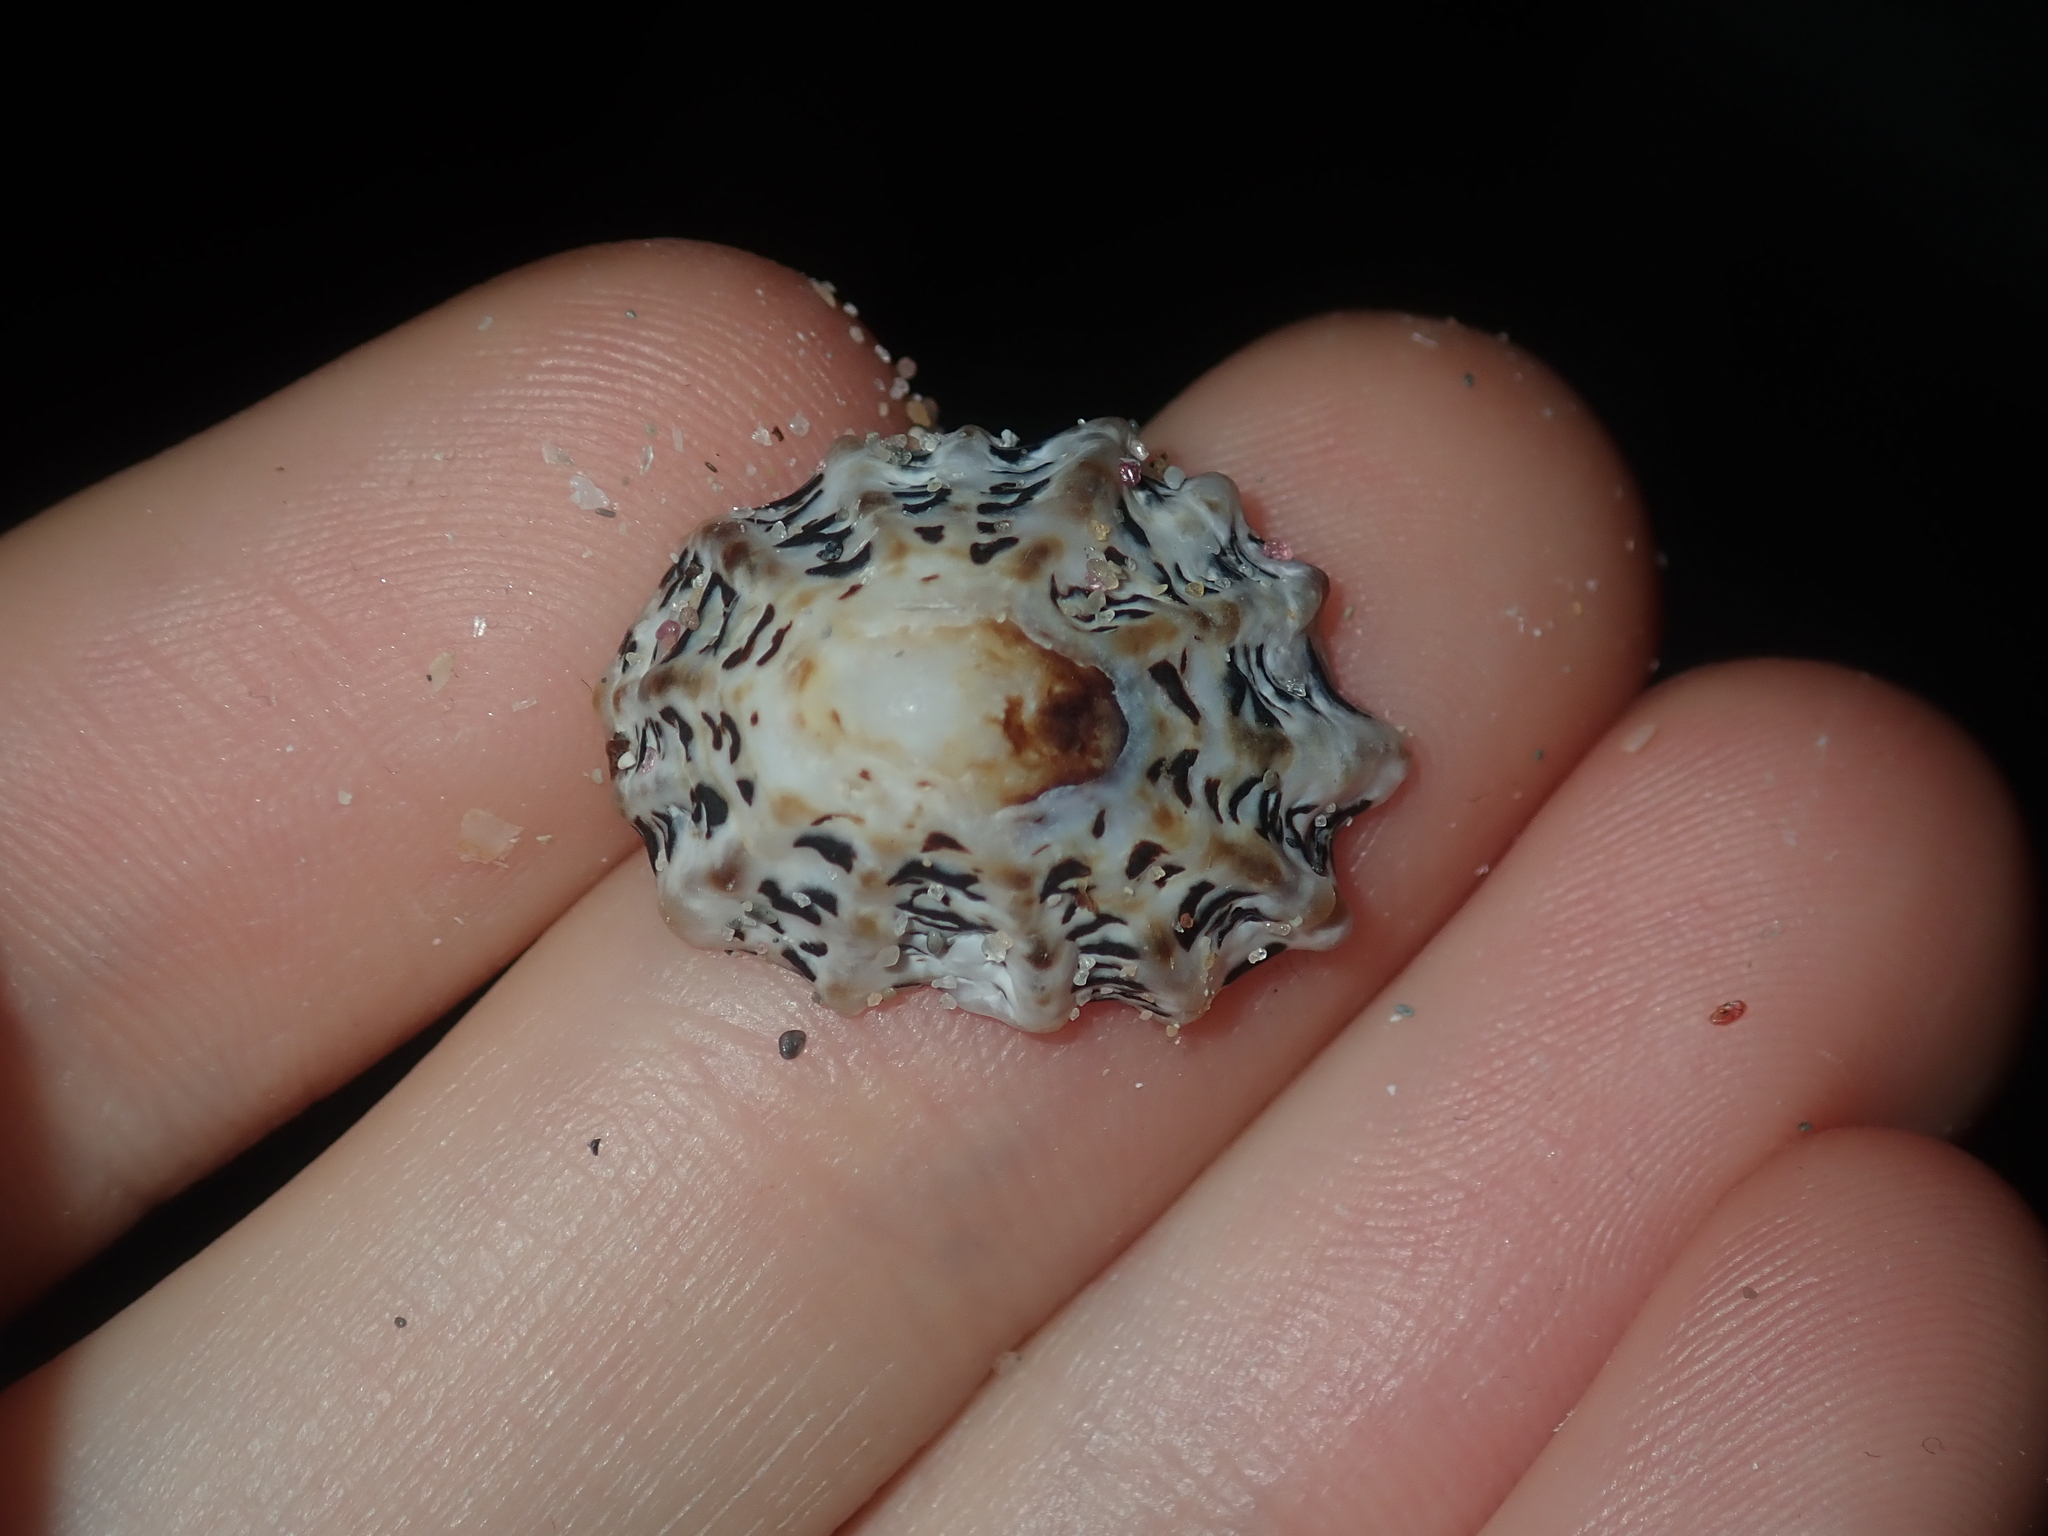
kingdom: Animalia
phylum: Mollusca
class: Gastropoda
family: Lottiidae
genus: Patelloida
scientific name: Patelloida alticostata
